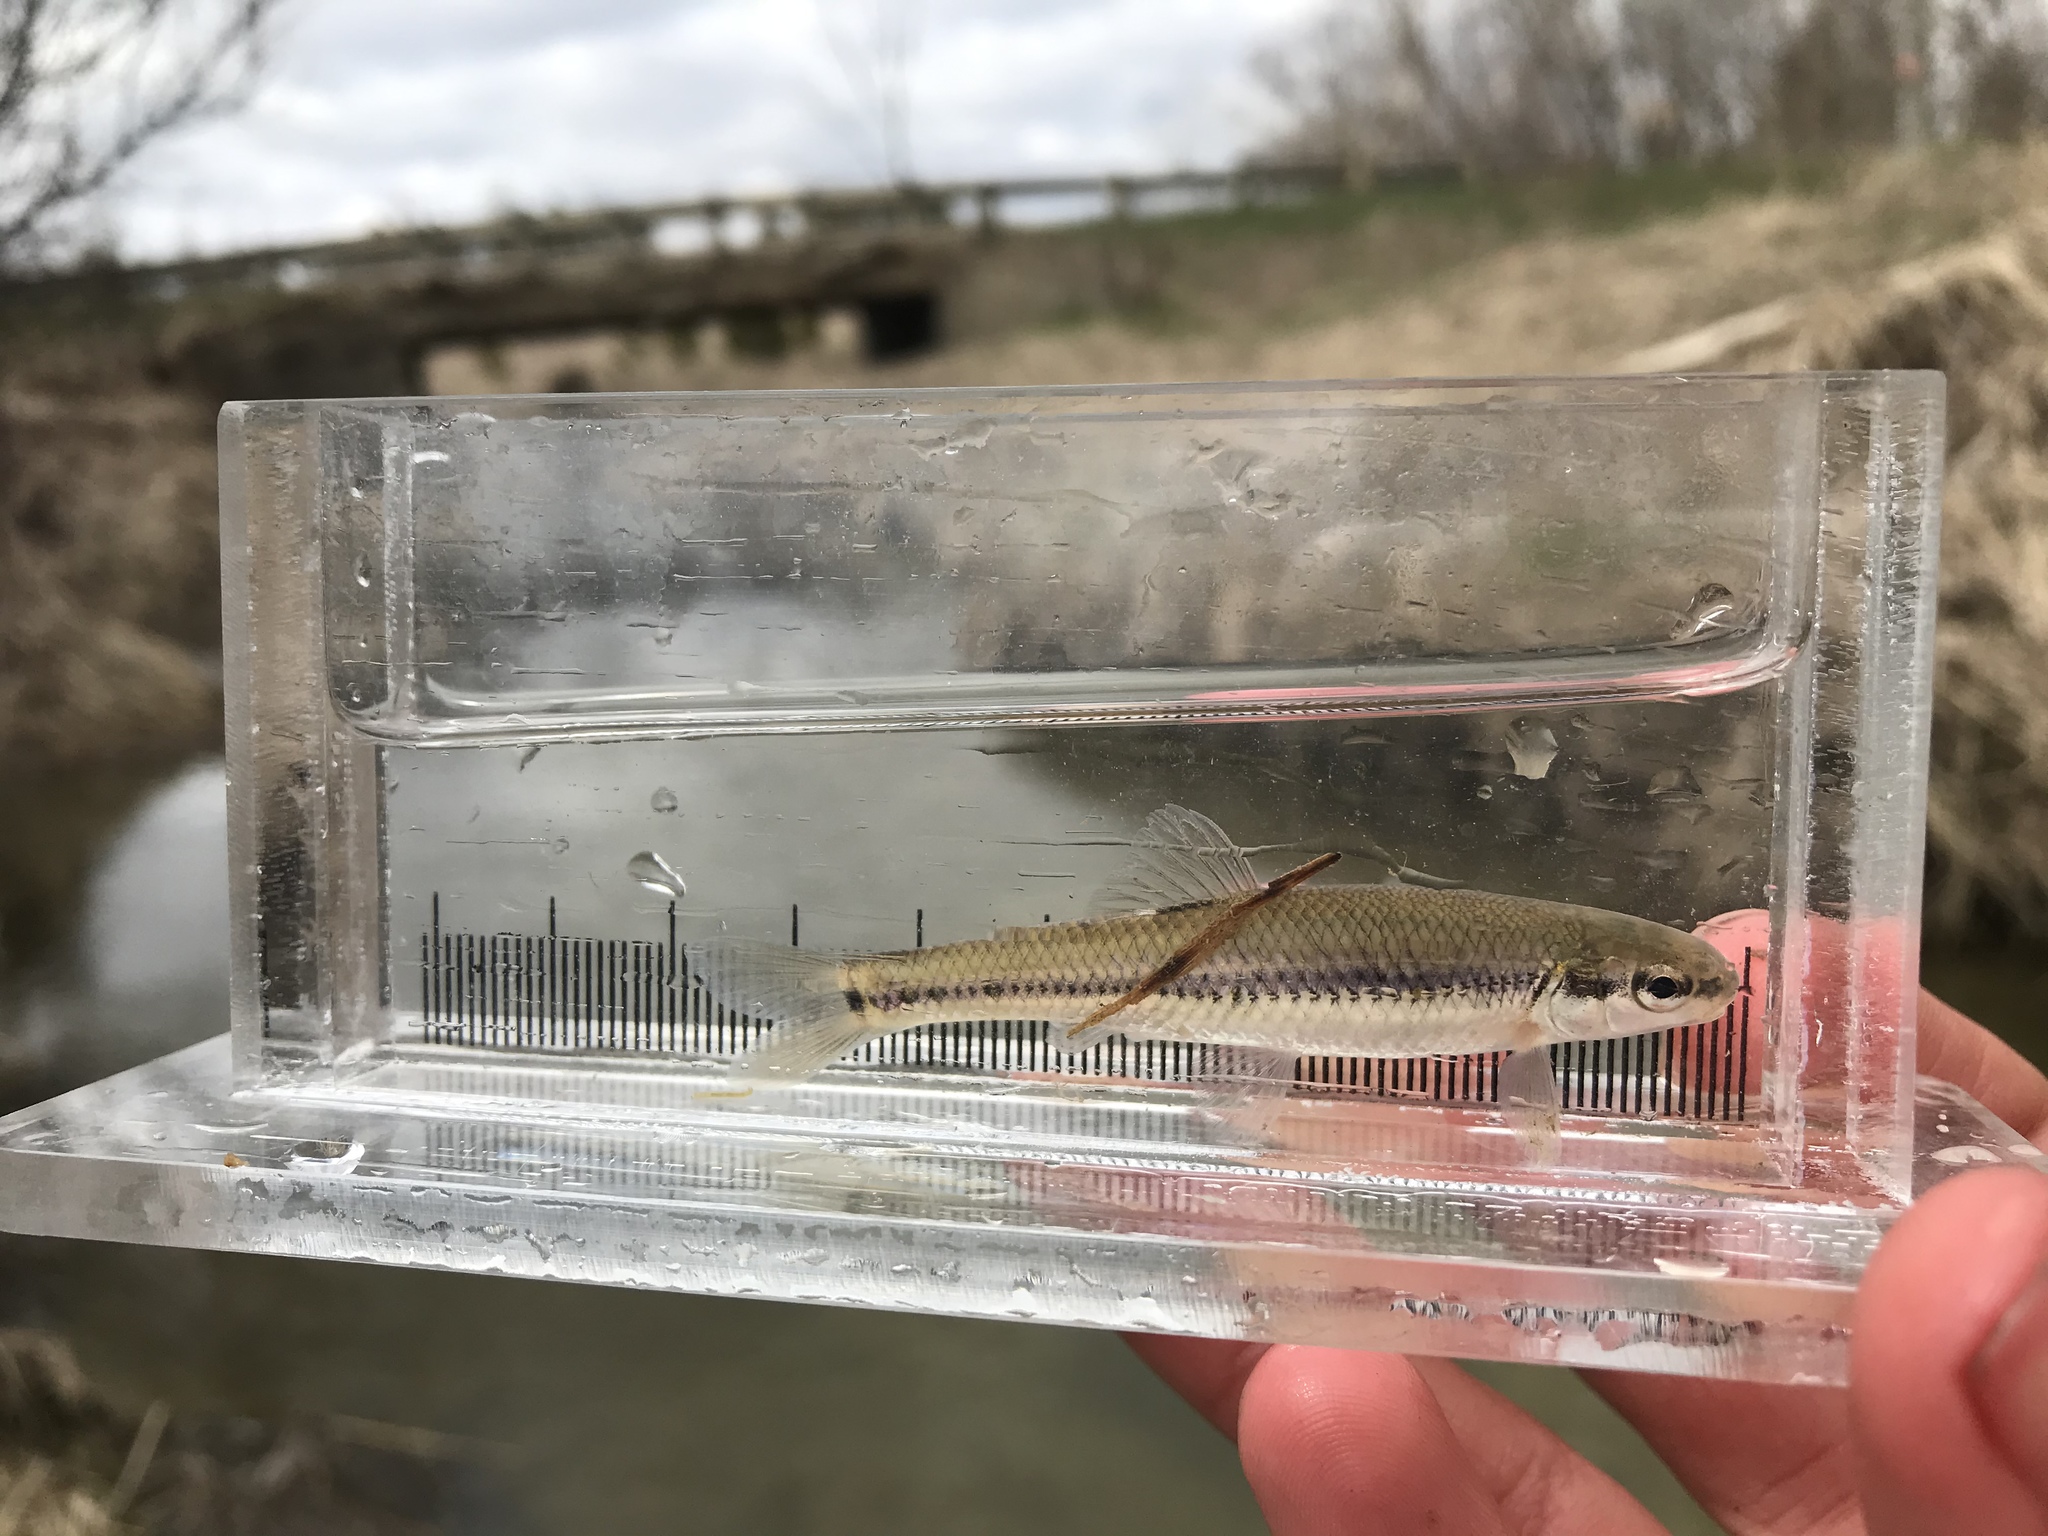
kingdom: Animalia
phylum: Chordata
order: Cypriniformes
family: Cyprinidae
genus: Pimephales
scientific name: Pimephales notatus
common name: Bluntnose minnow
